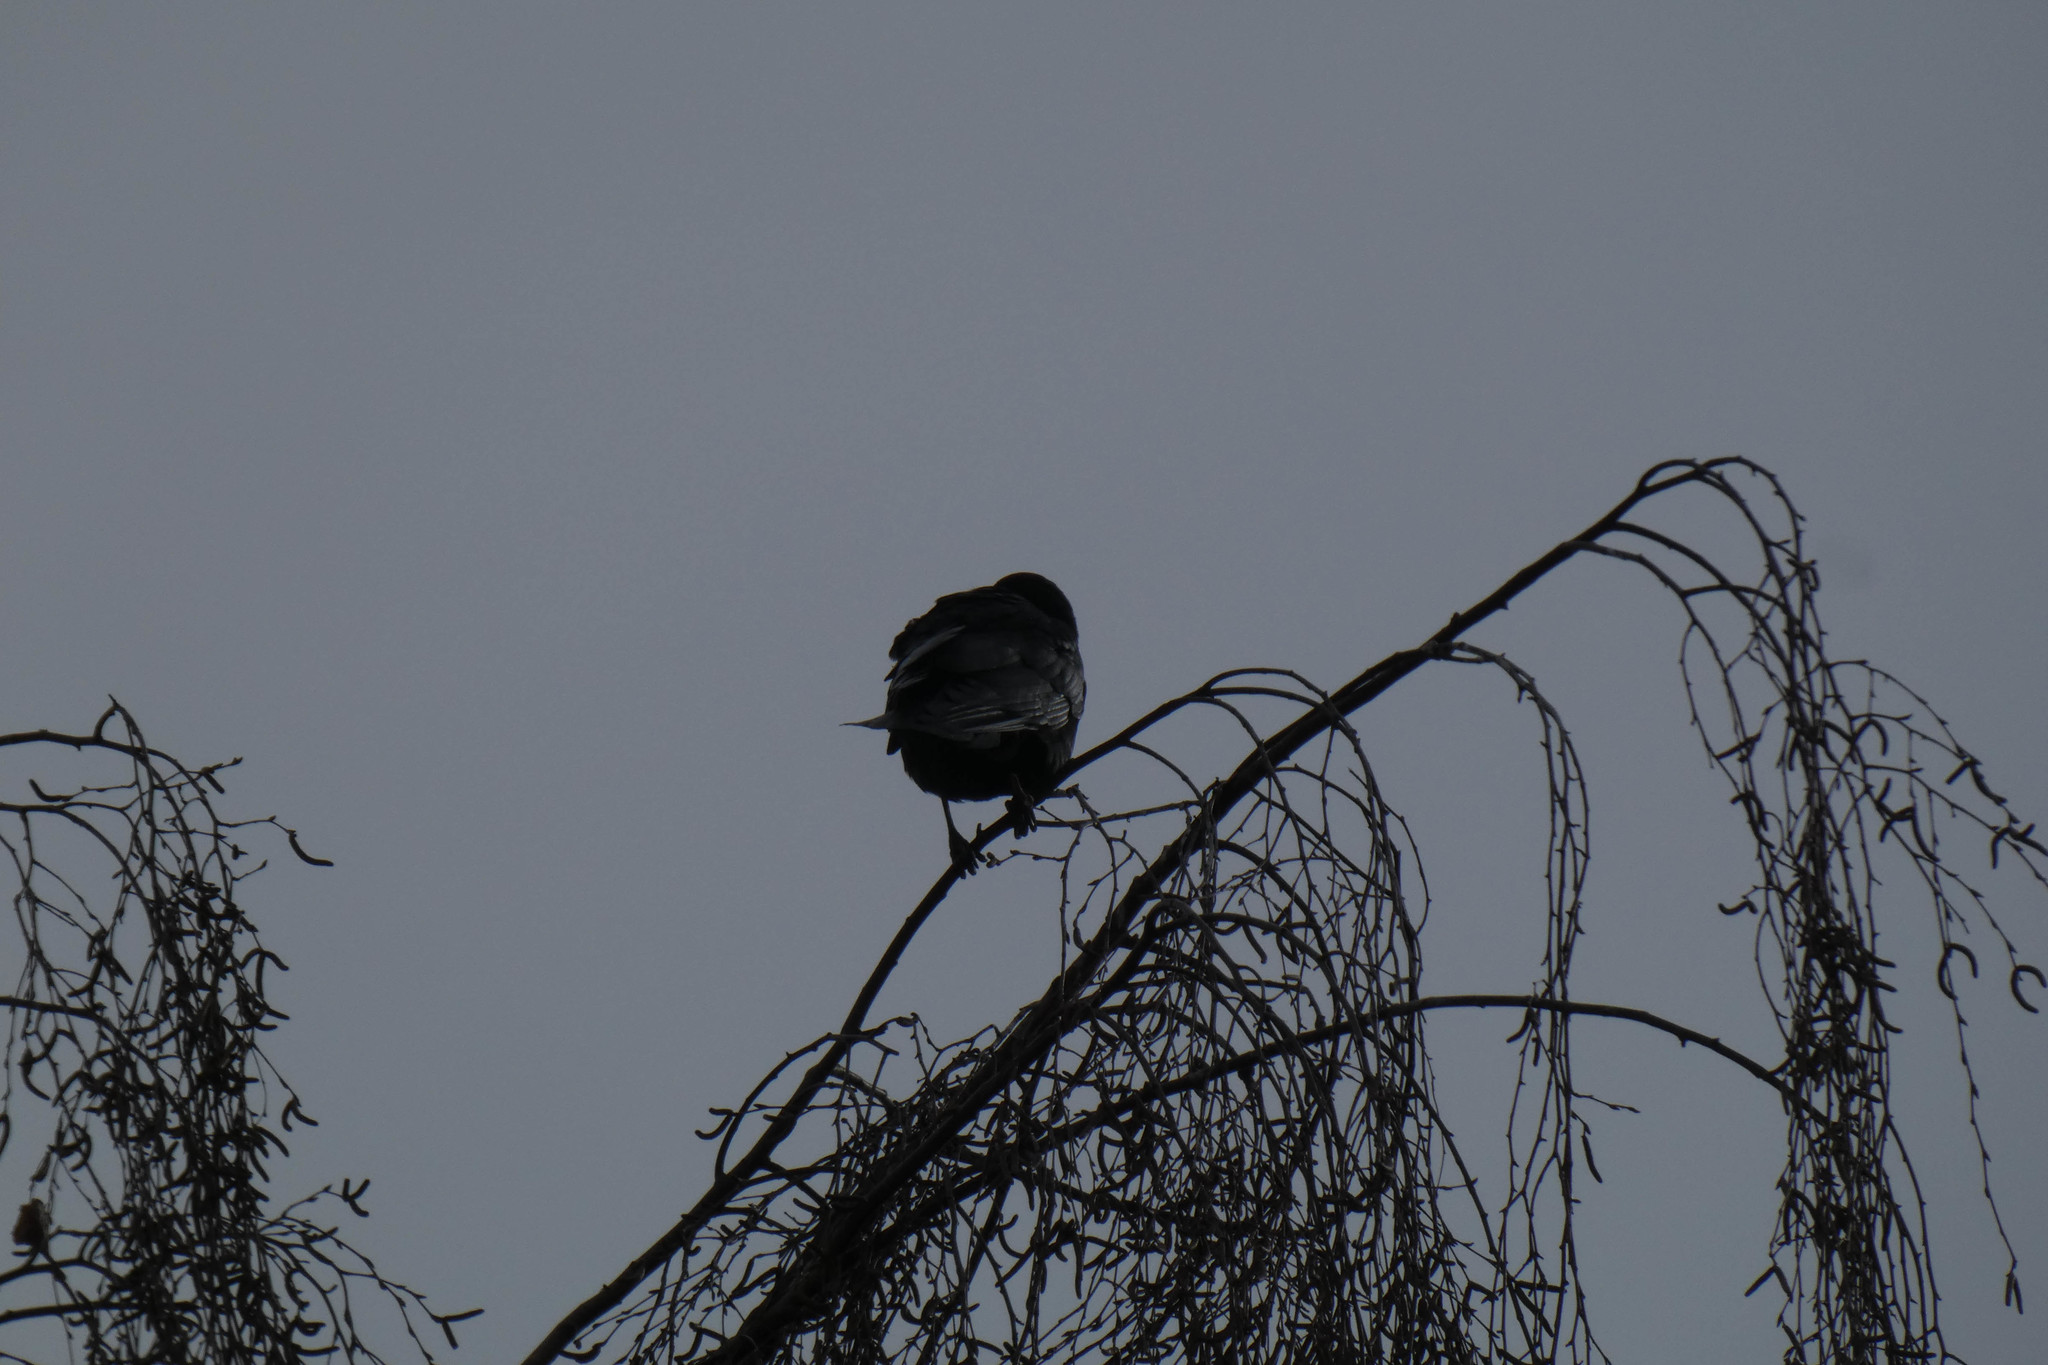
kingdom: Animalia
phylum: Chordata
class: Aves
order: Passeriformes
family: Corvidae
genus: Corvus
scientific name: Corvus brachyrhynchos
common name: American crow
